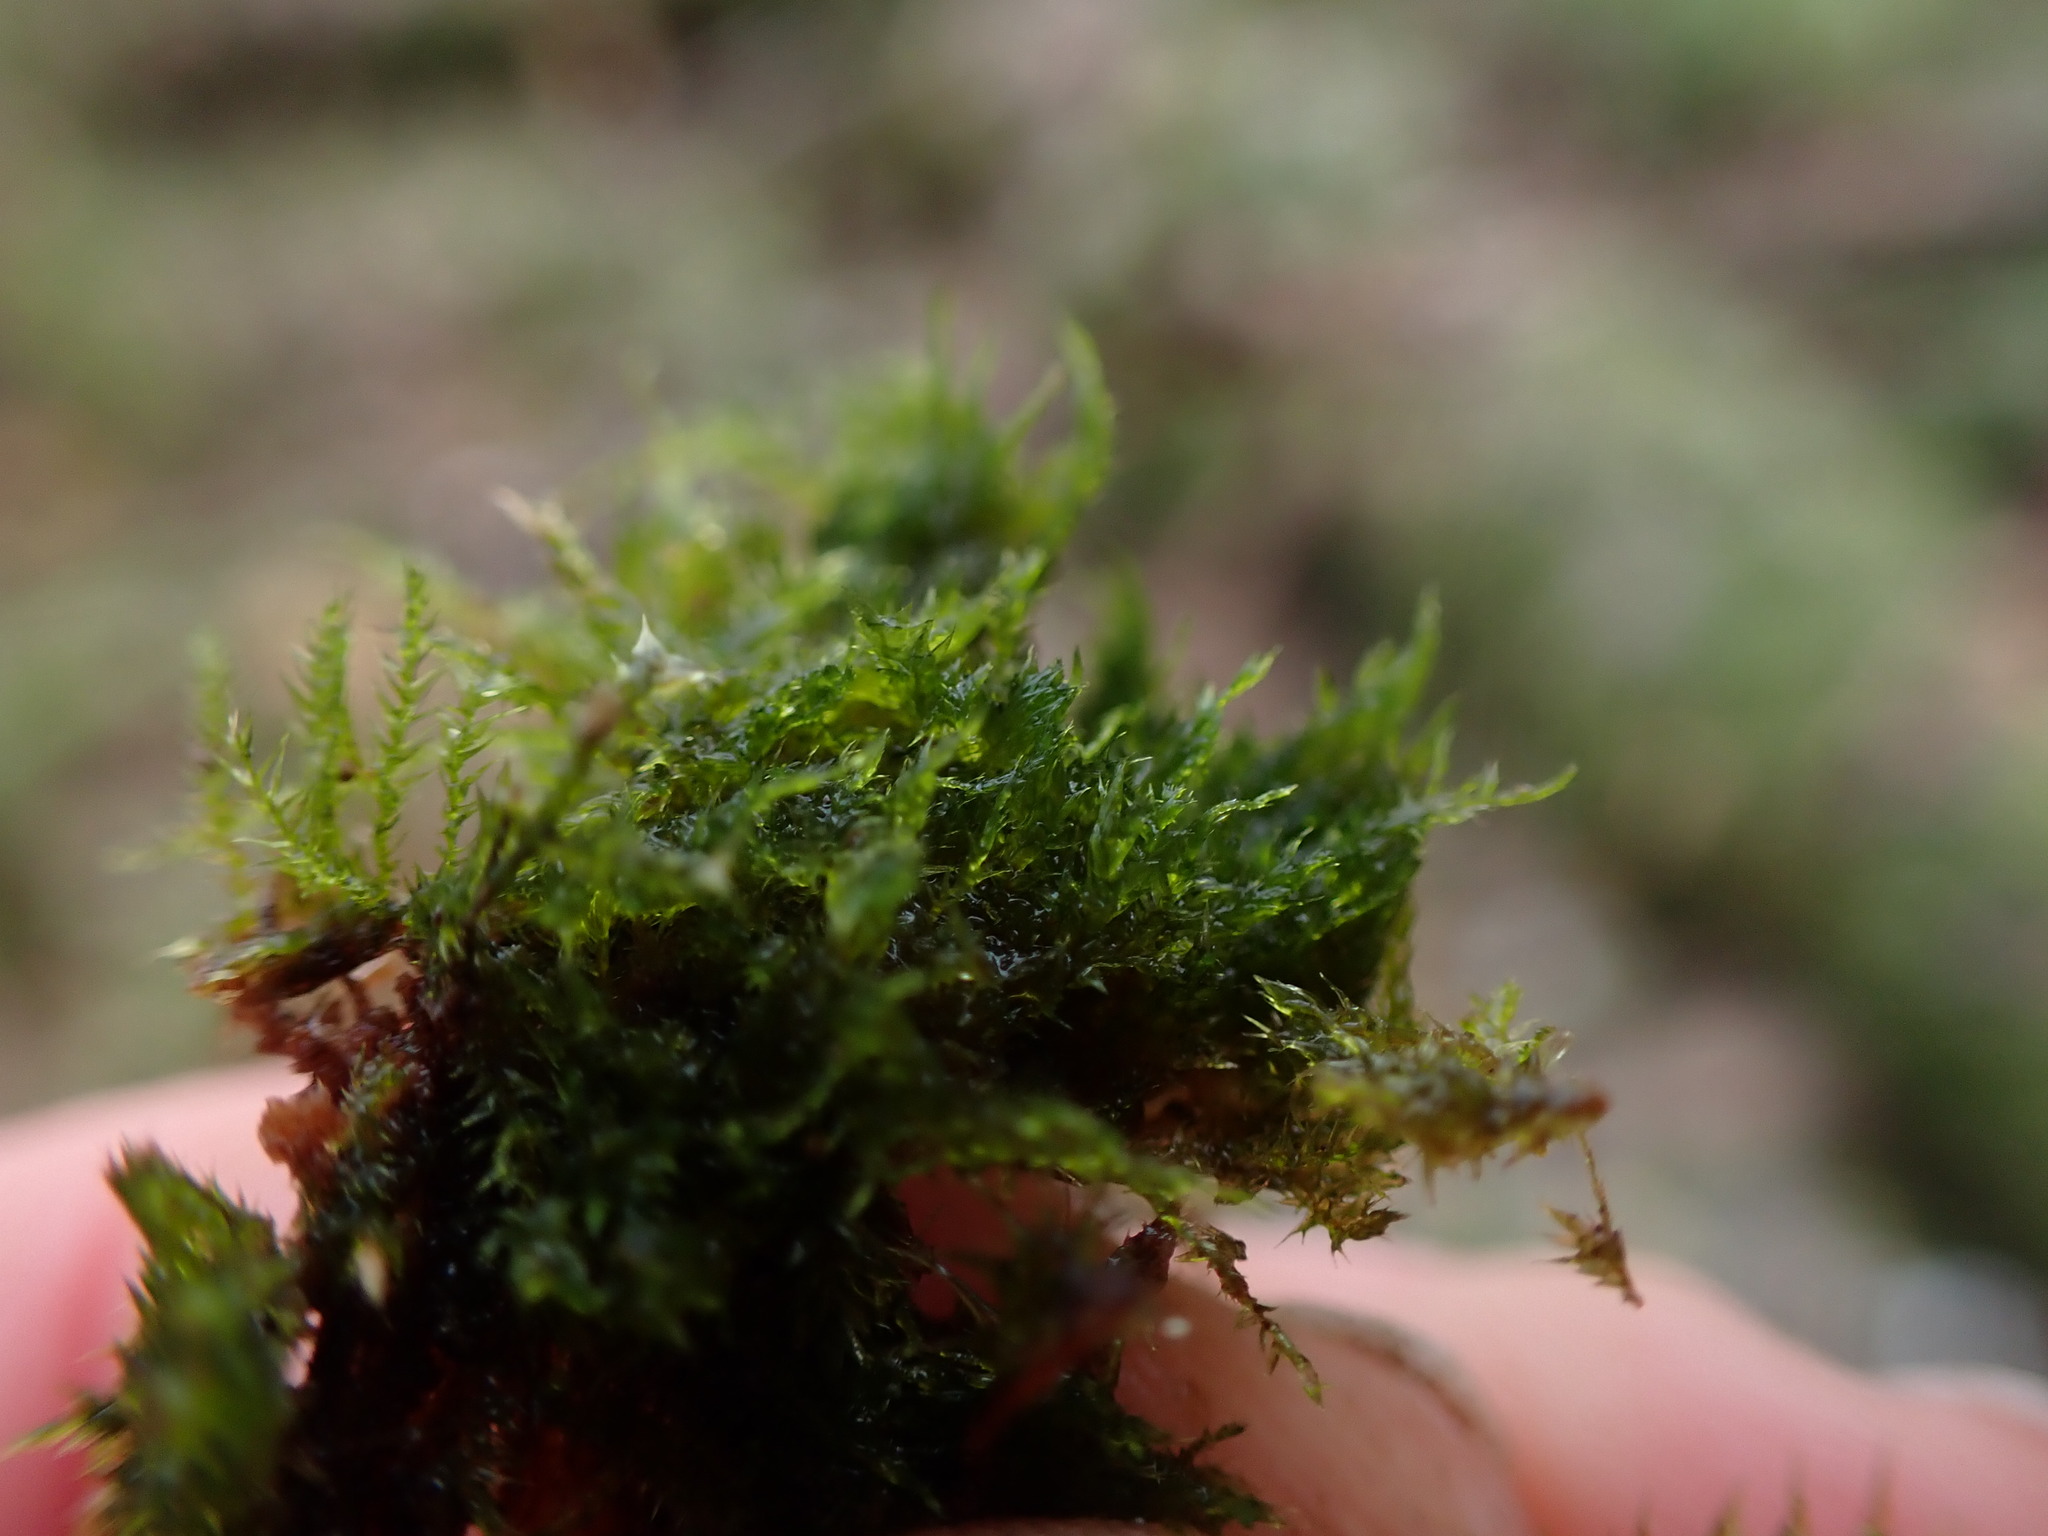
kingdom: Plantae
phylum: Bryophyta
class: Bryopsida
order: Hypnales
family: Pylaisiadelphaceae
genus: Brotherella
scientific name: Brotherella fauriei
